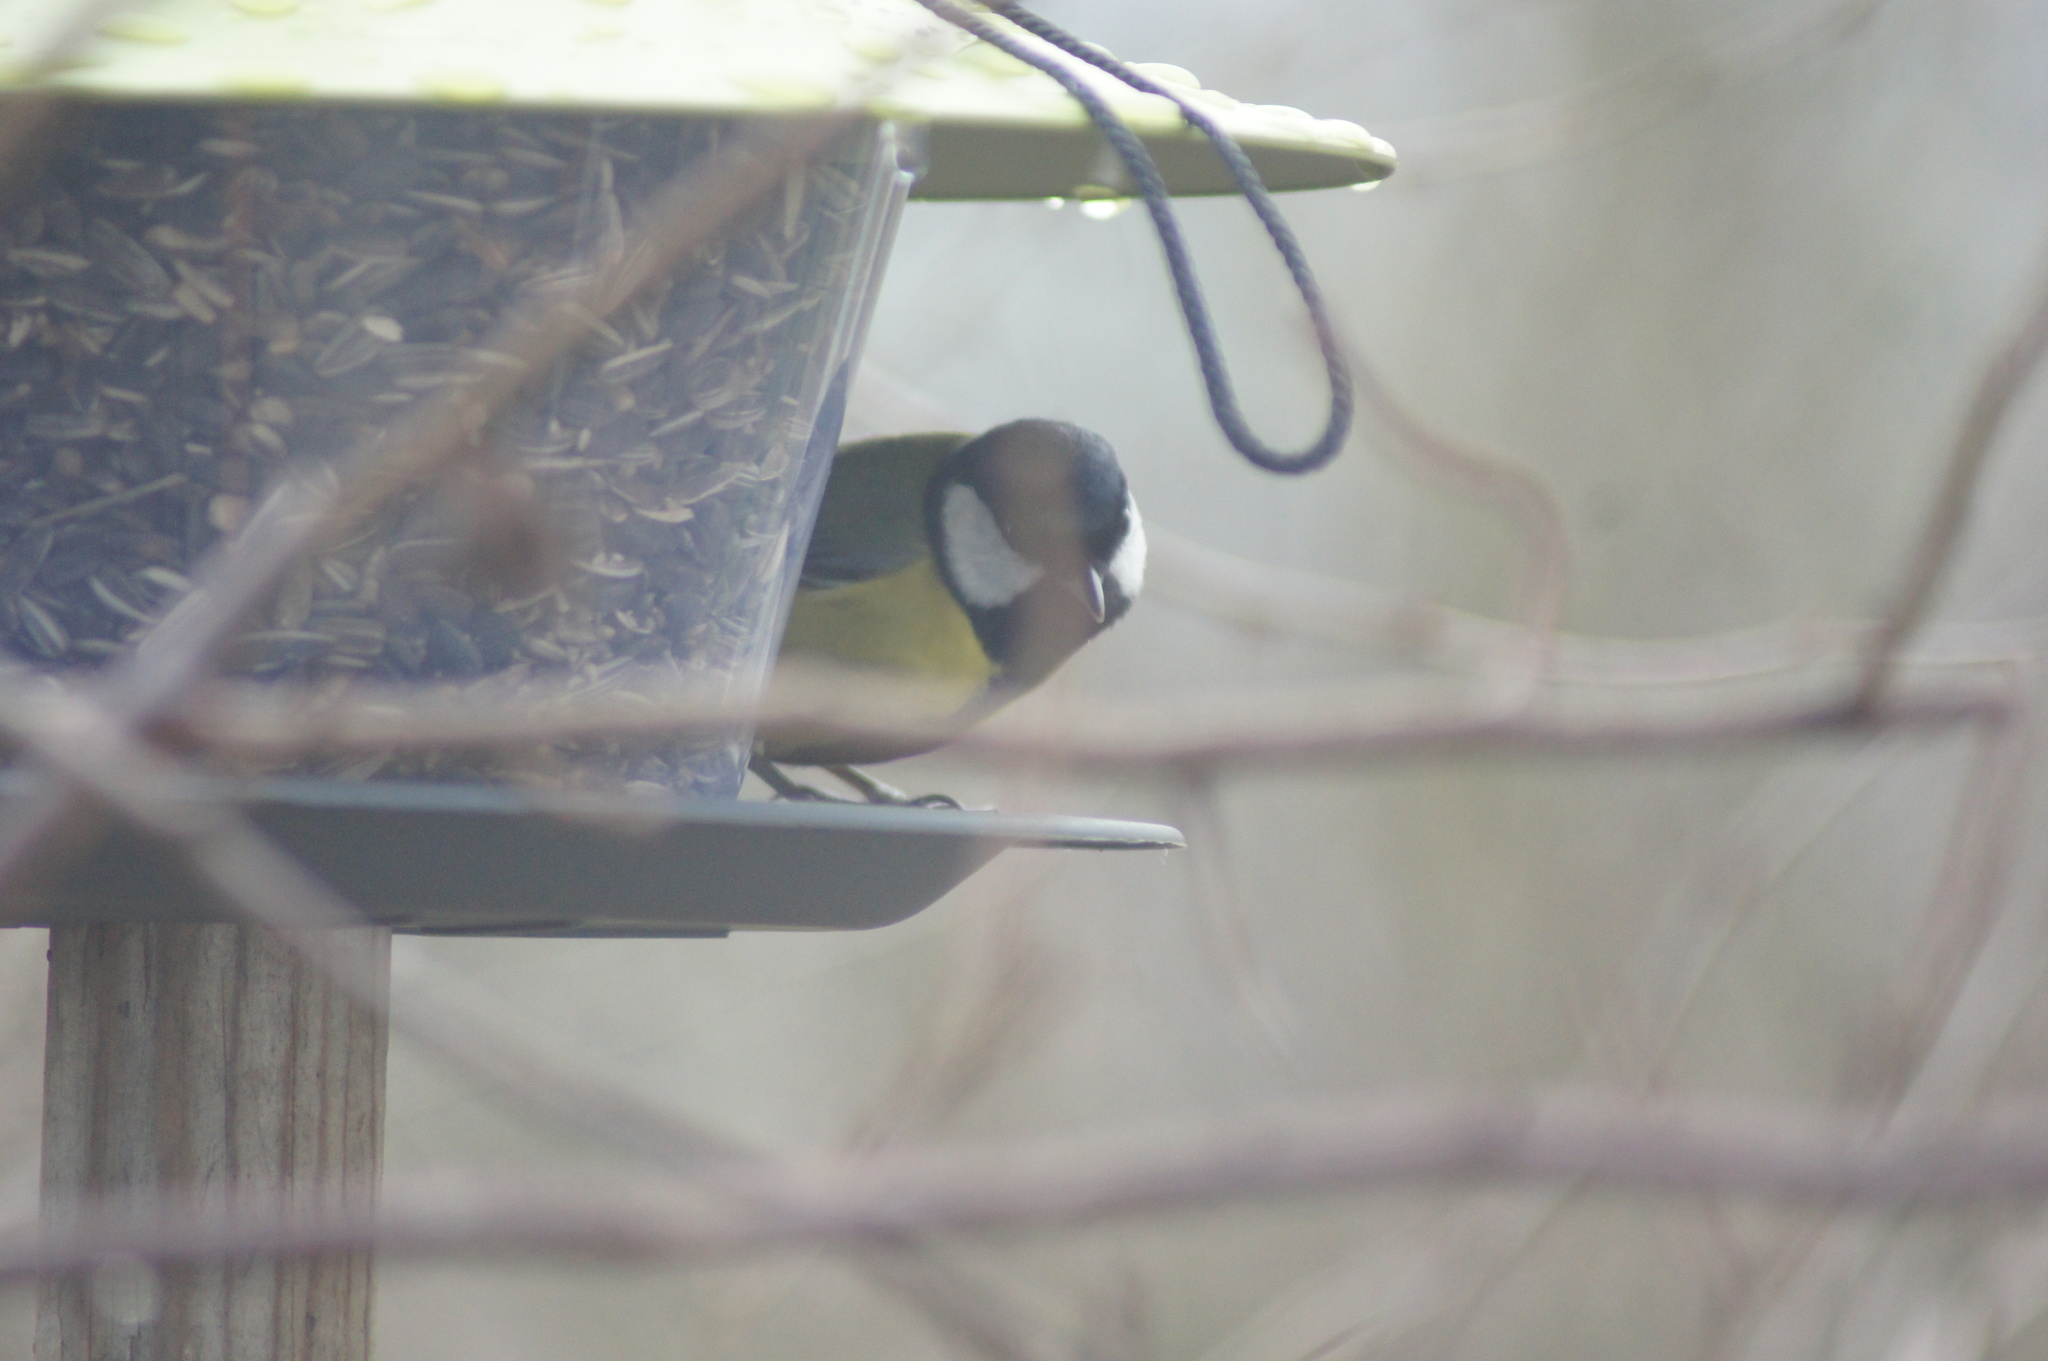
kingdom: Animalia
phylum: Chordata
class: Aves
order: Passeriformes
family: Paridae
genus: Parus
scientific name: Parus major
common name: Great tit
